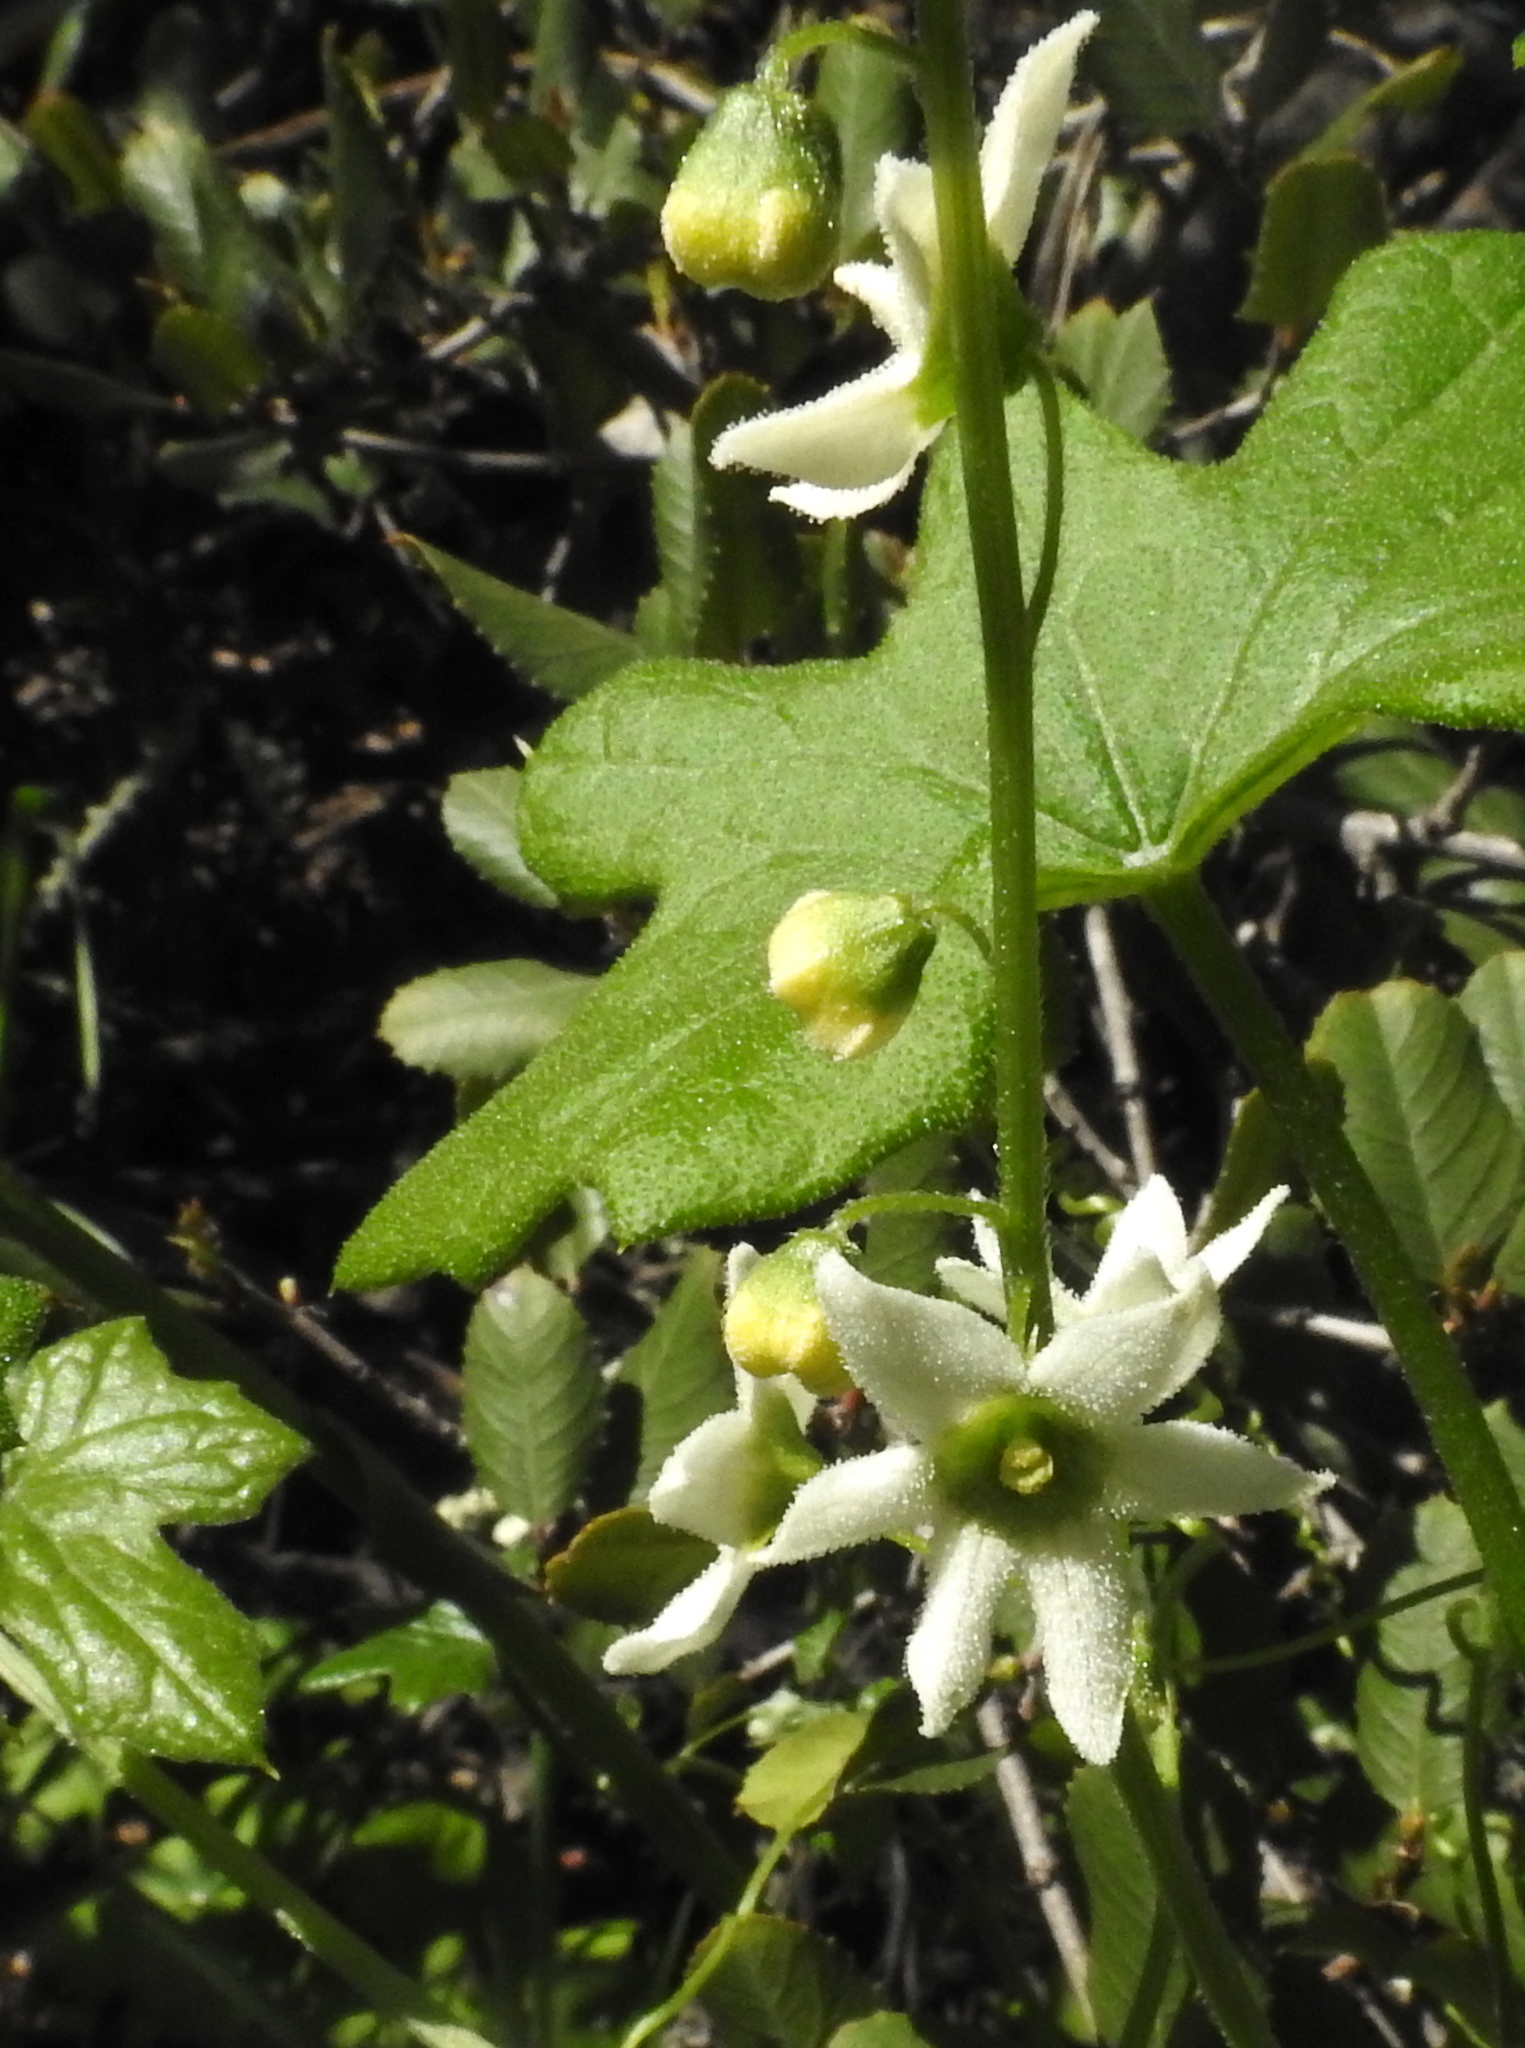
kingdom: Plantae
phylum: Tracheophyta
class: Magnoliopsida
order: Cucurbitales
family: Cucurbitaceae
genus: Marah
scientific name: Marah macrocarpa
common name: Cucamonga manroot
